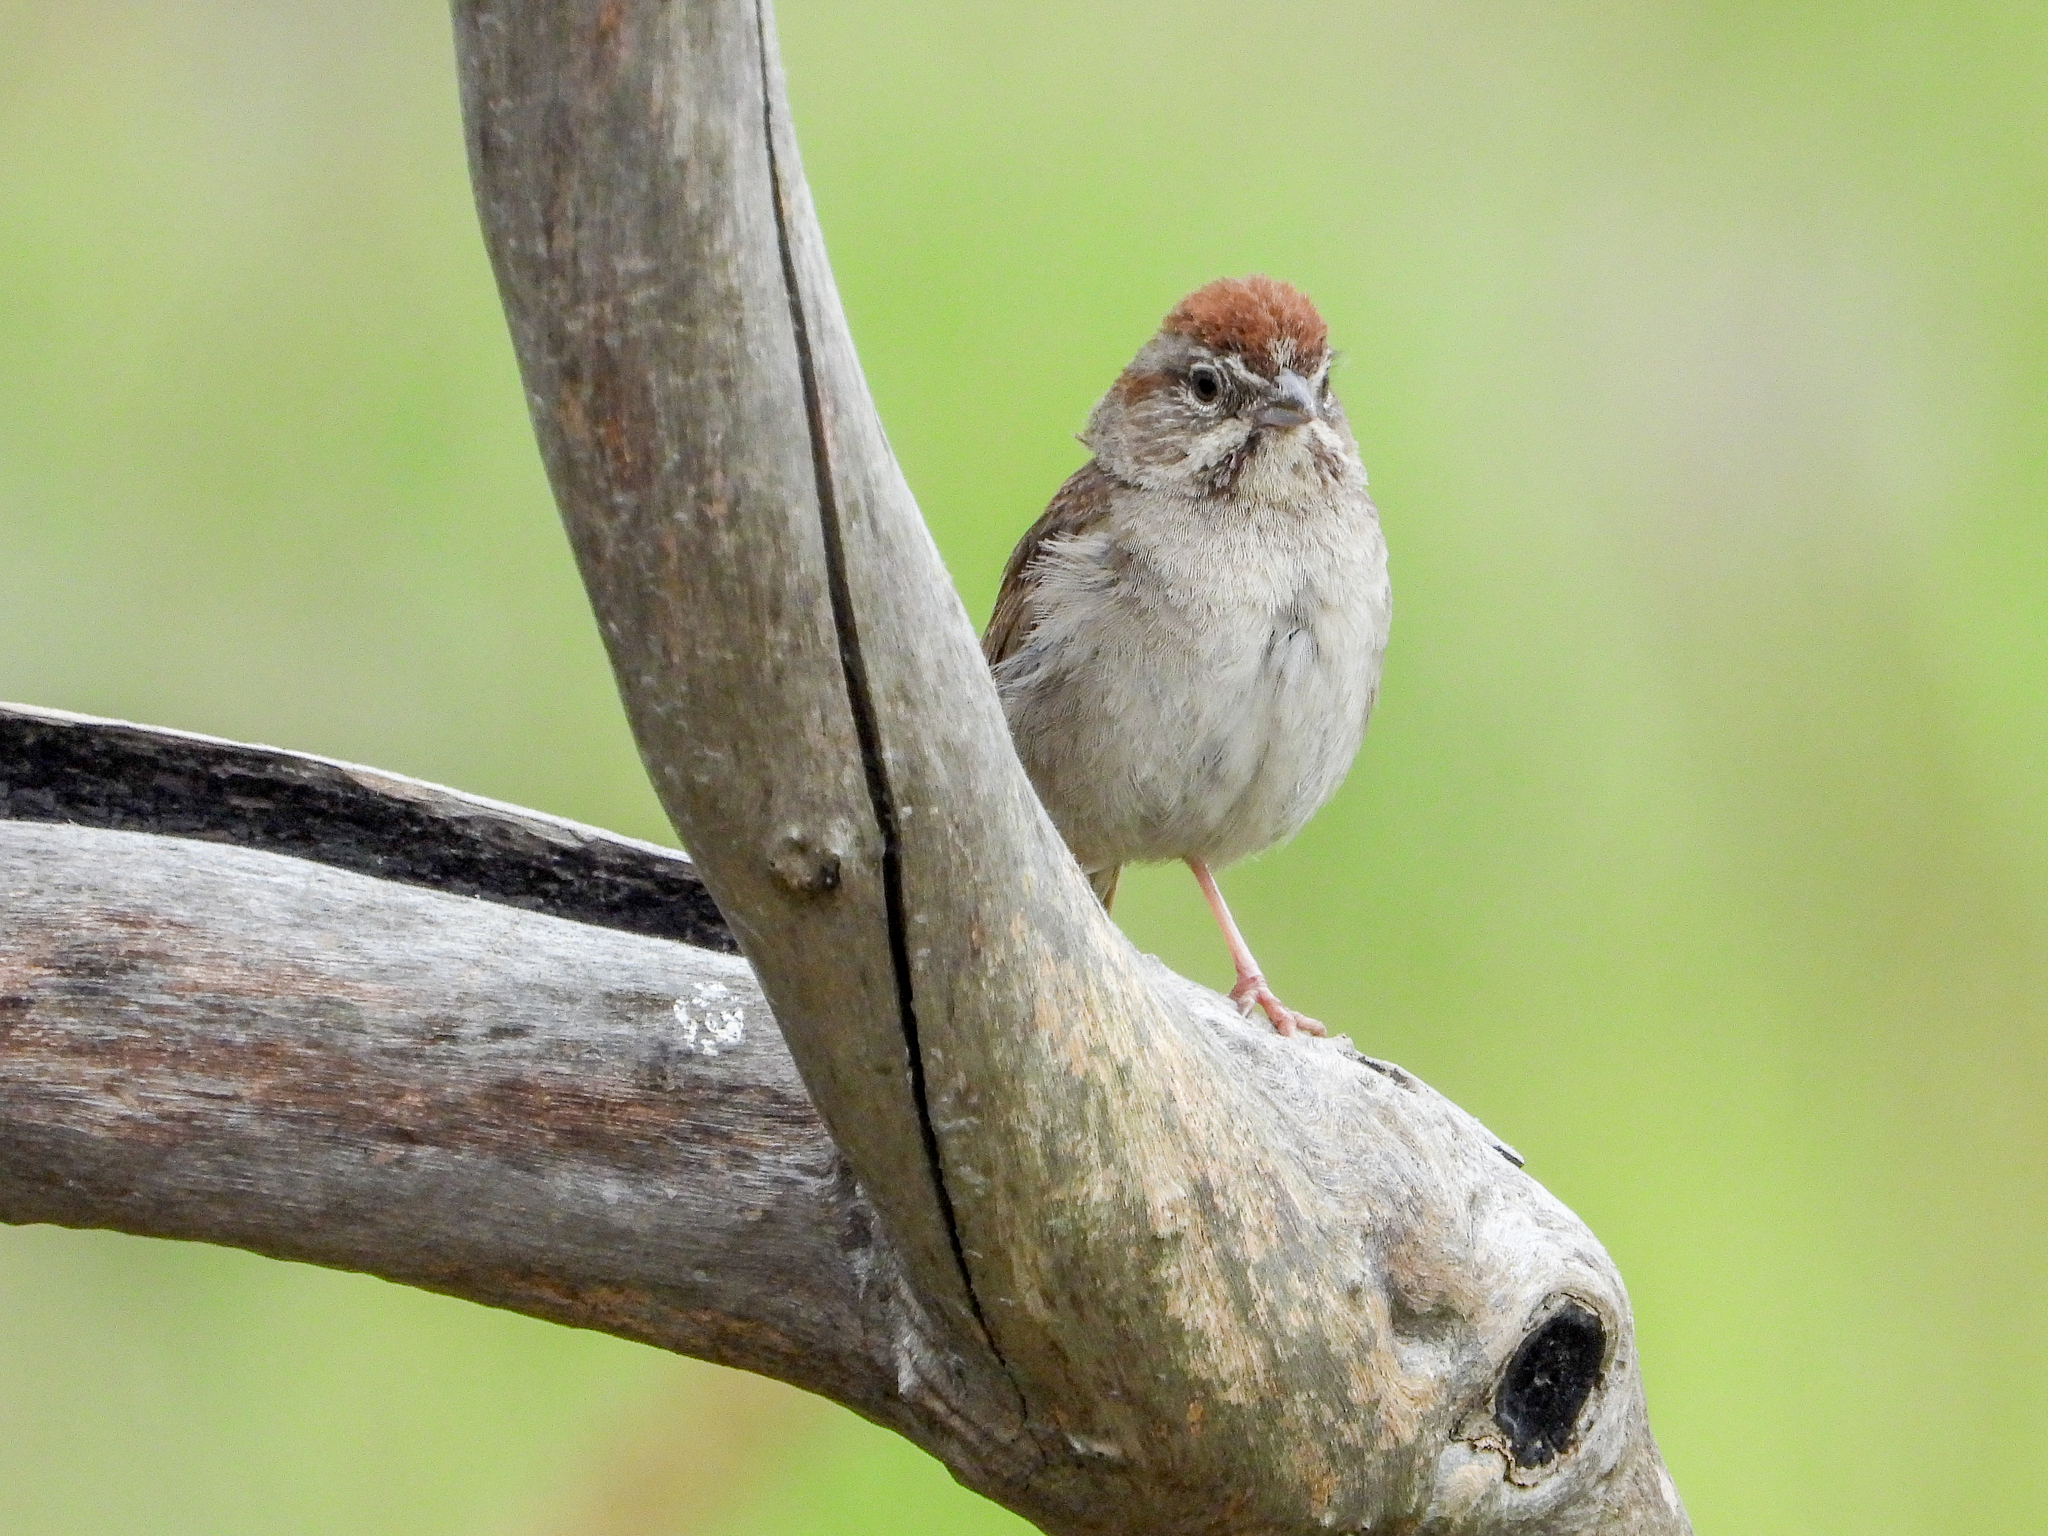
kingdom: Animalia
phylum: Chordata
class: Aves
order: Passeriformes
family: Passerellidae
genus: Aimophila
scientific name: Aimophila ruficeps
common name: Rufous-crowned sparrow
